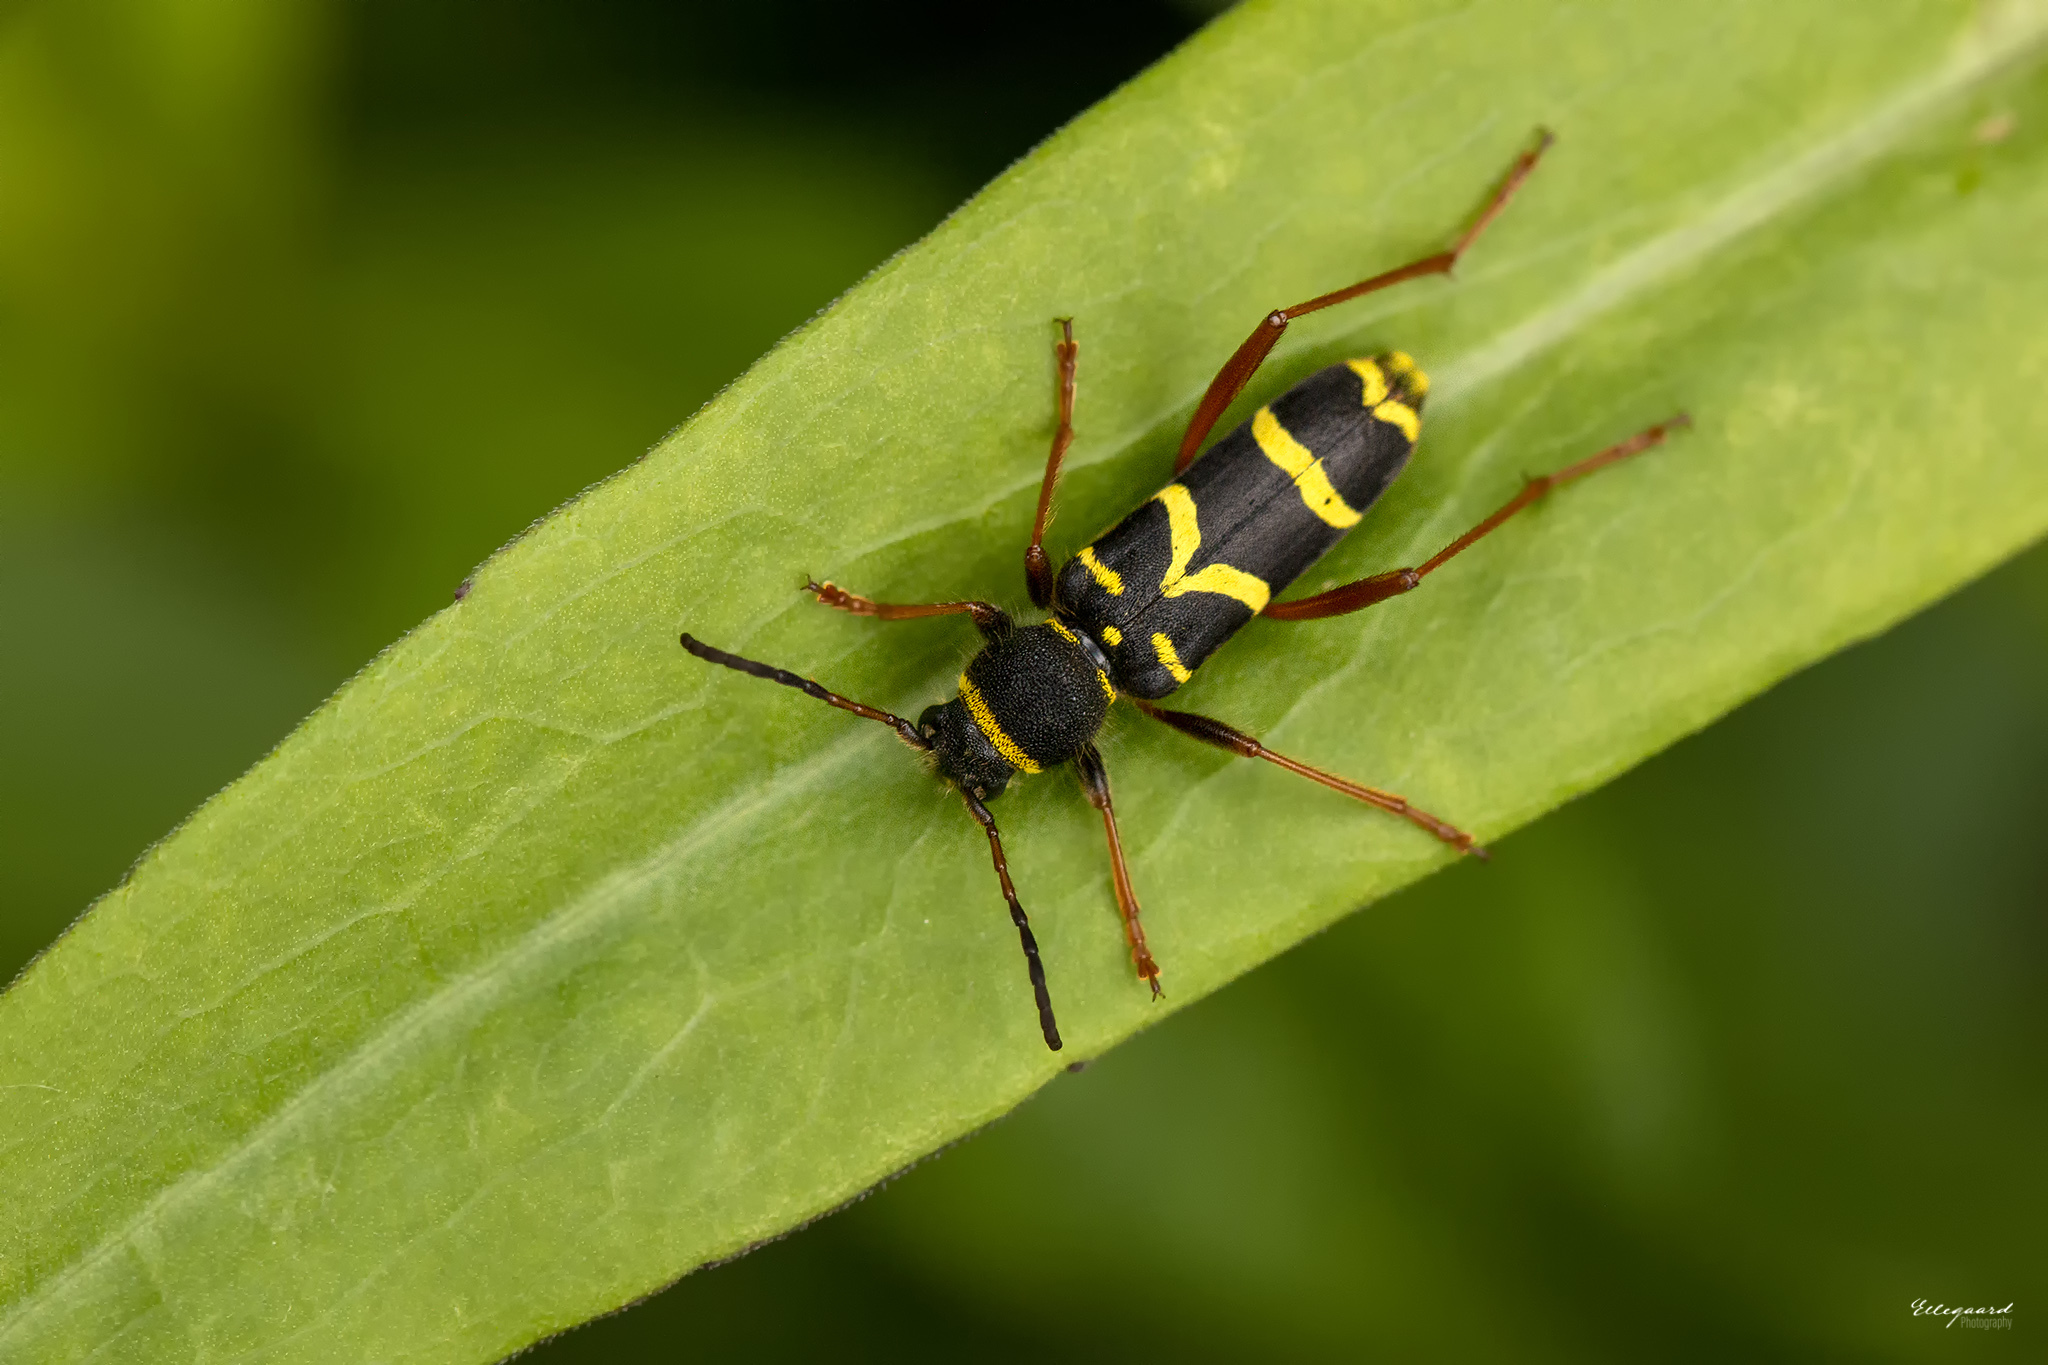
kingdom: Animalia
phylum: Arthropoda
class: Insecta
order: Coleoptera
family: Cerambycidae
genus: Clytus
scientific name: Clytus arietis
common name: Wasp beetle
